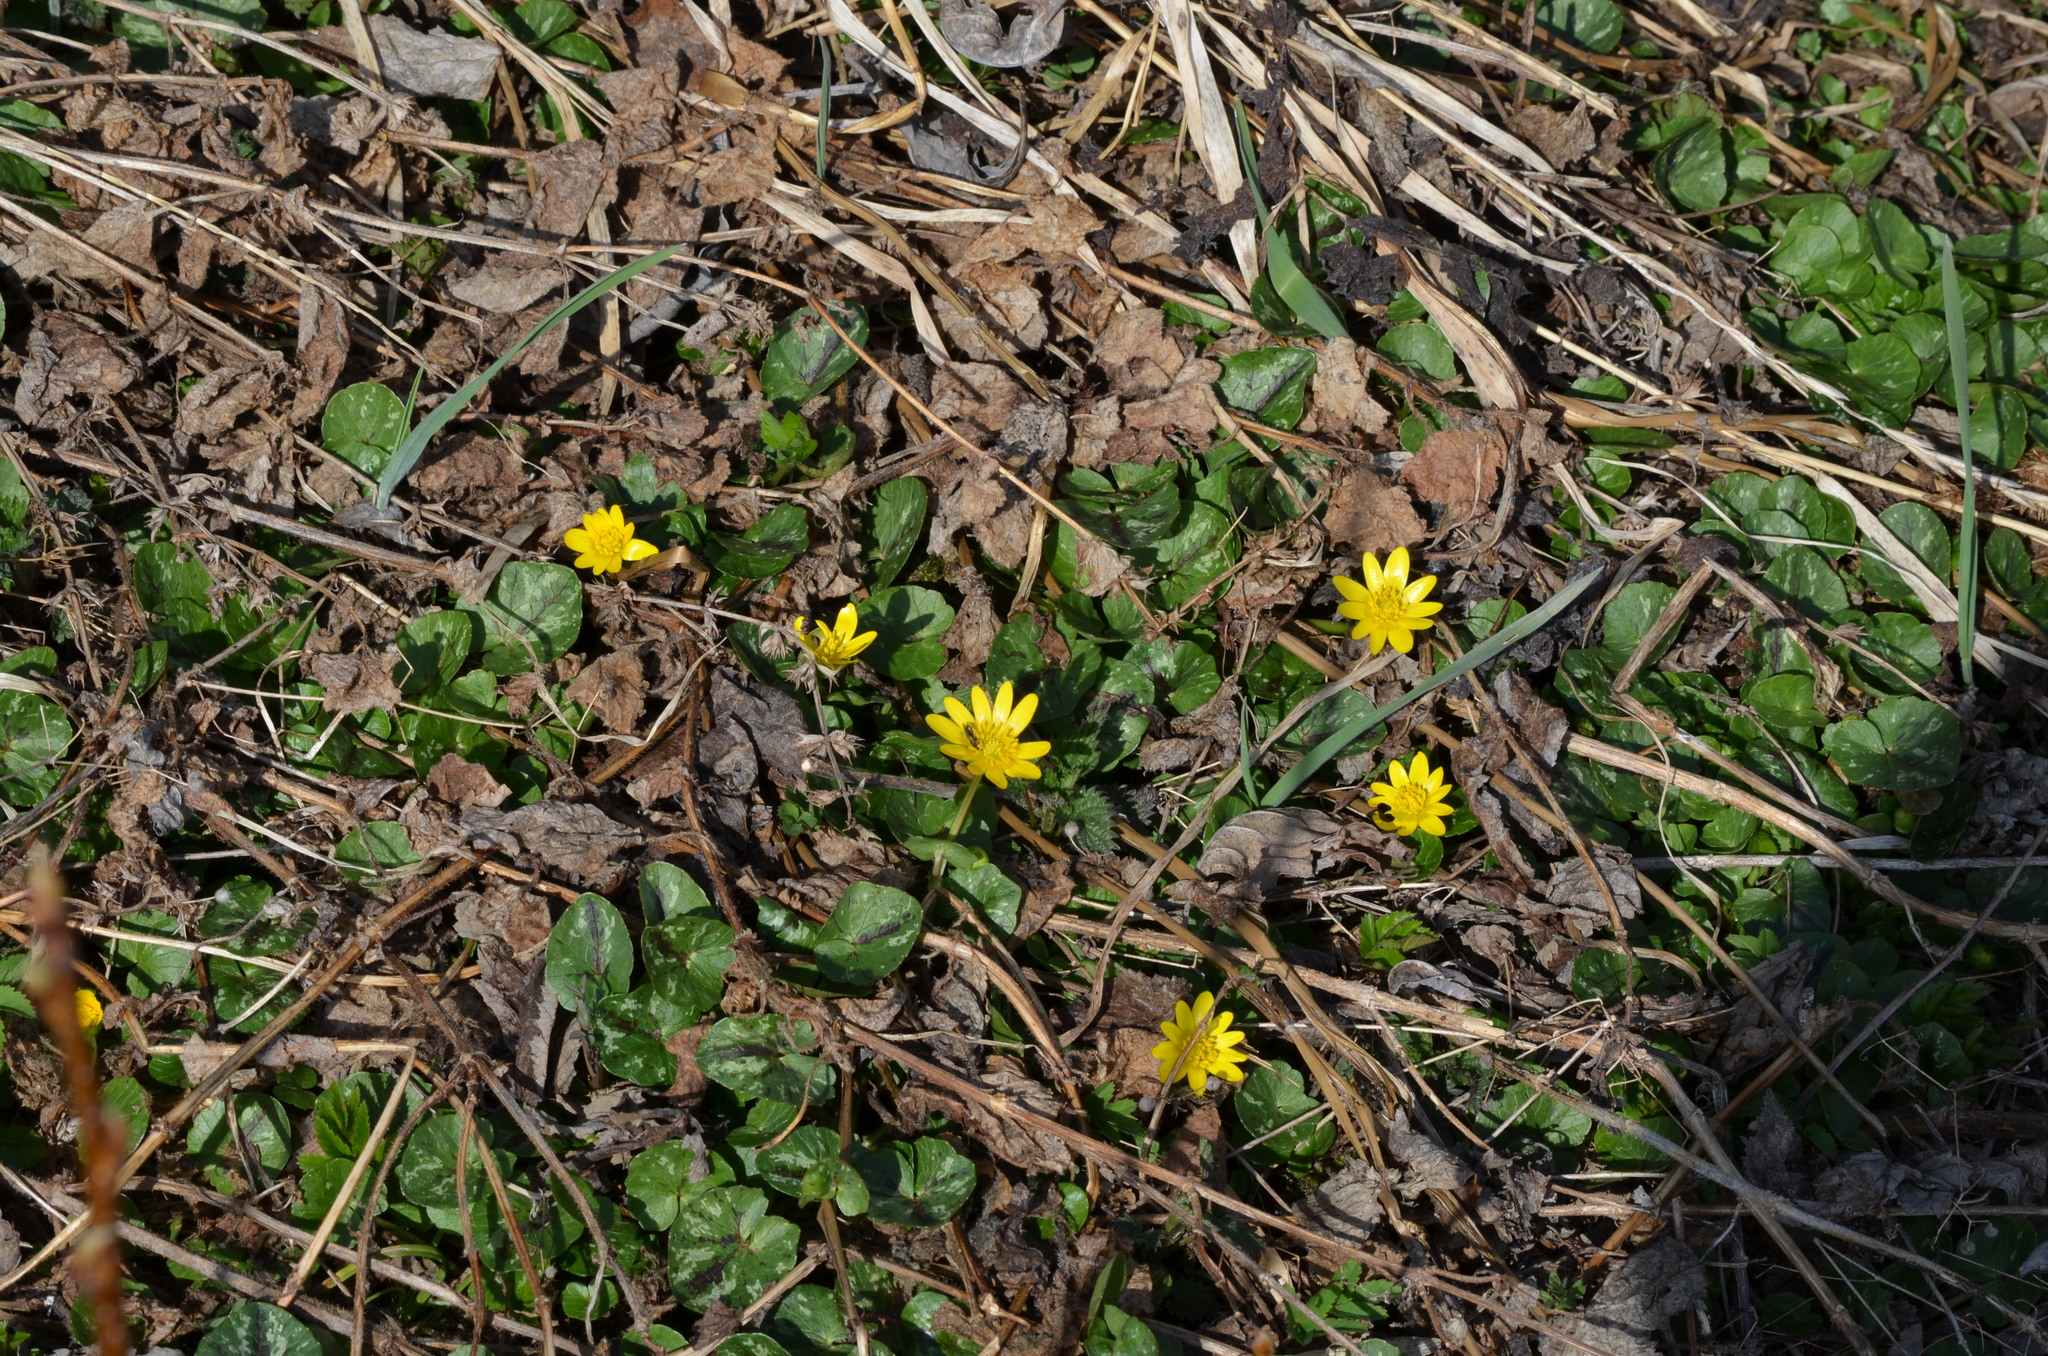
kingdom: Plantae
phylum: Tracheophyta
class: Magnoliopsida
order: Ranunculales
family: Ranunculaceae
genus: Ficaria
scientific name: Ficaria verna
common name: Lesser celandine
